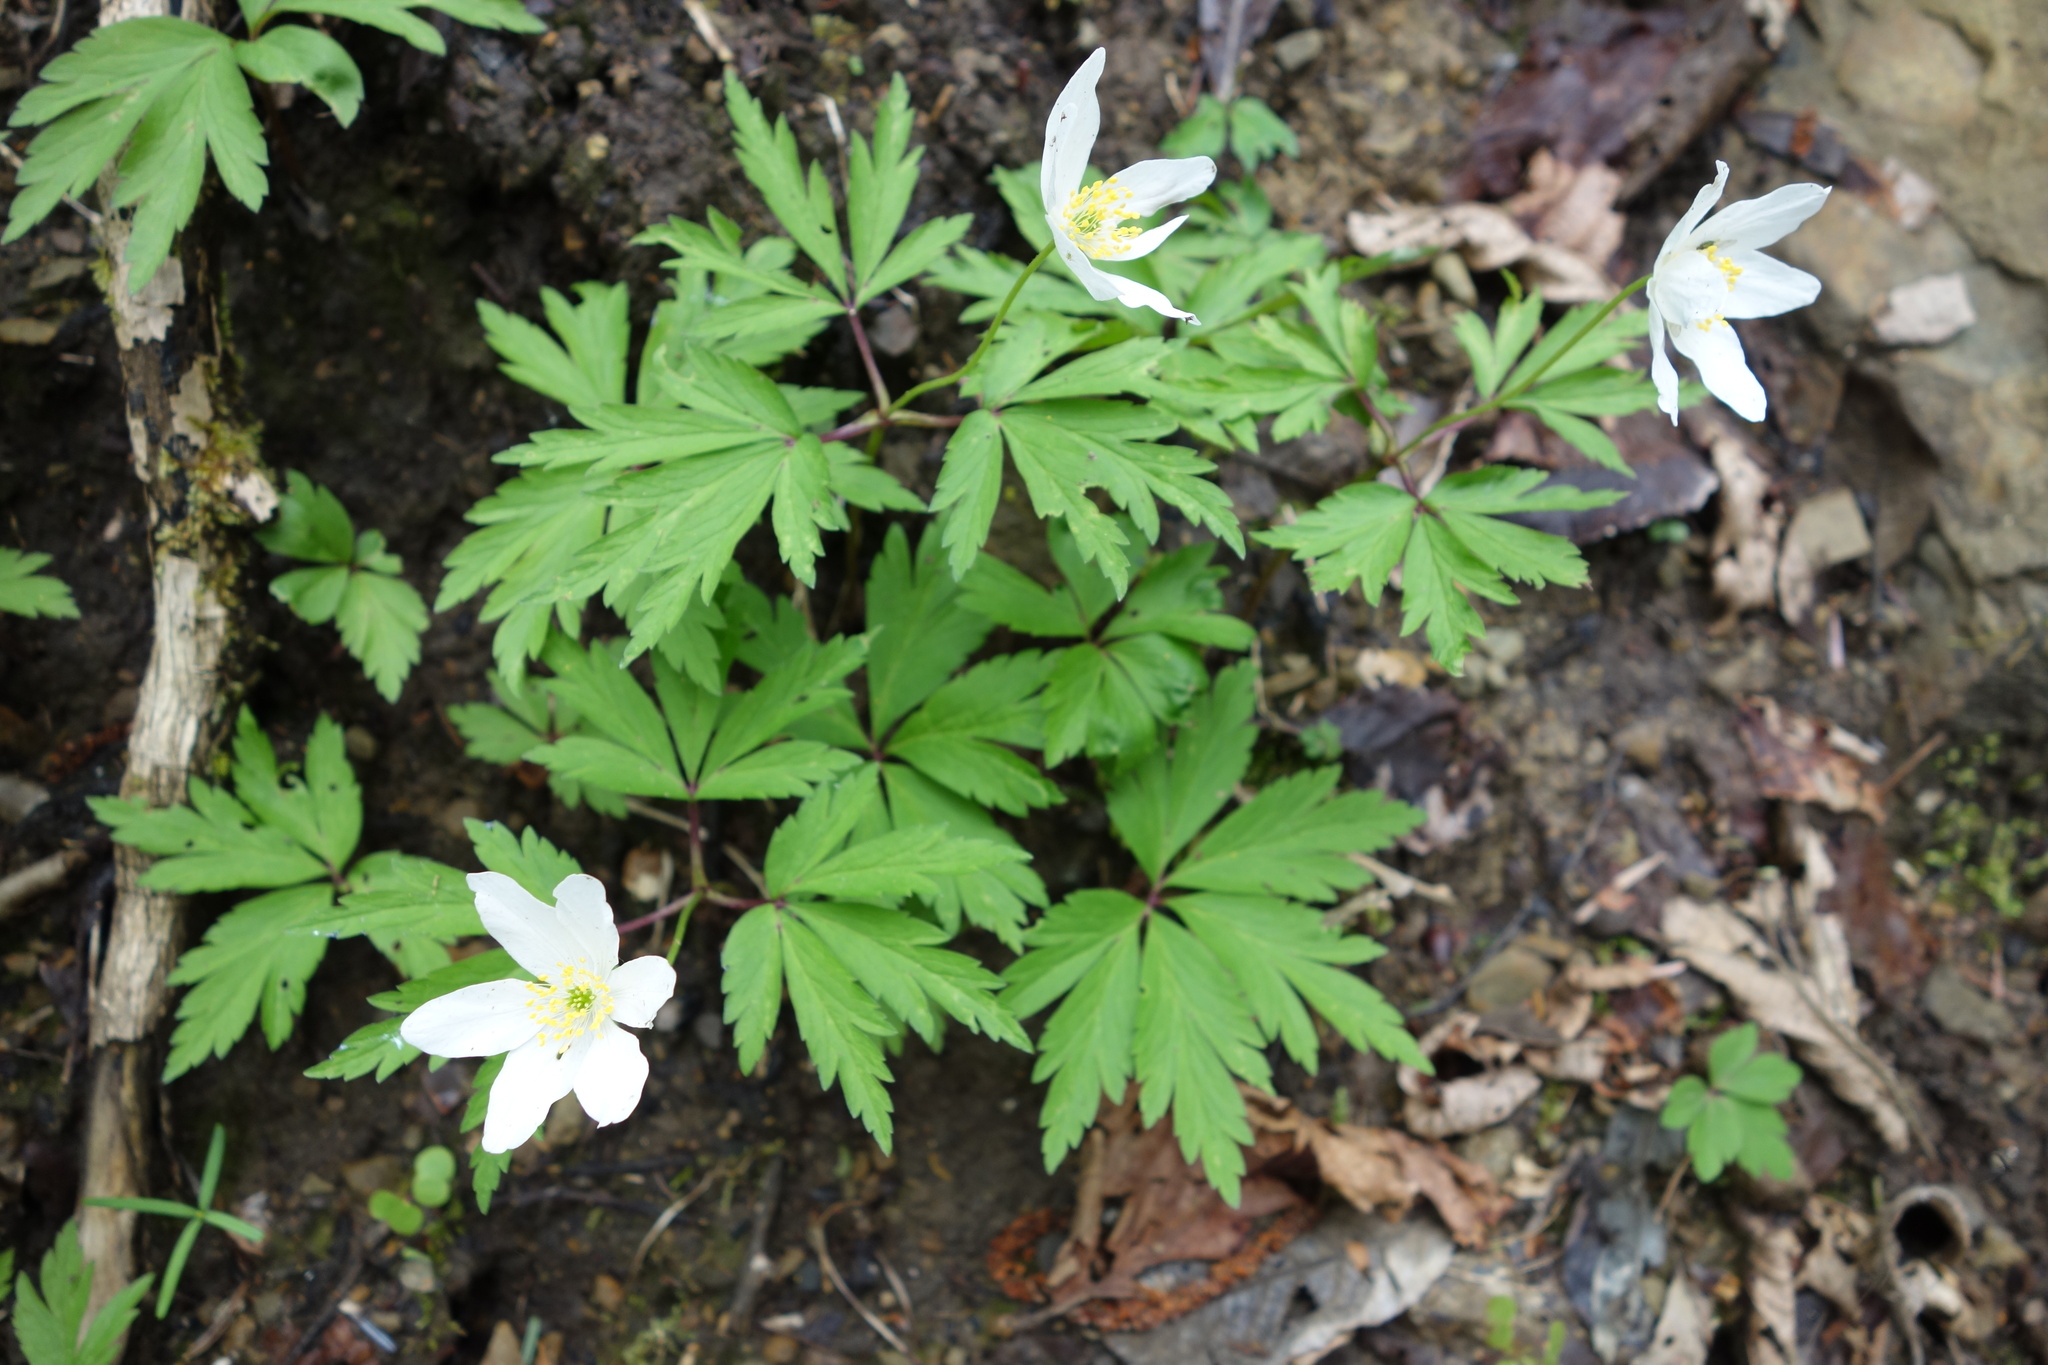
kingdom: Plantae
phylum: Tracheophyta
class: Magnoliopsida
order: Ranunculales
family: Ranunculaceae
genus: Anemone
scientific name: Anemone nemorosa
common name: Wood anemone
